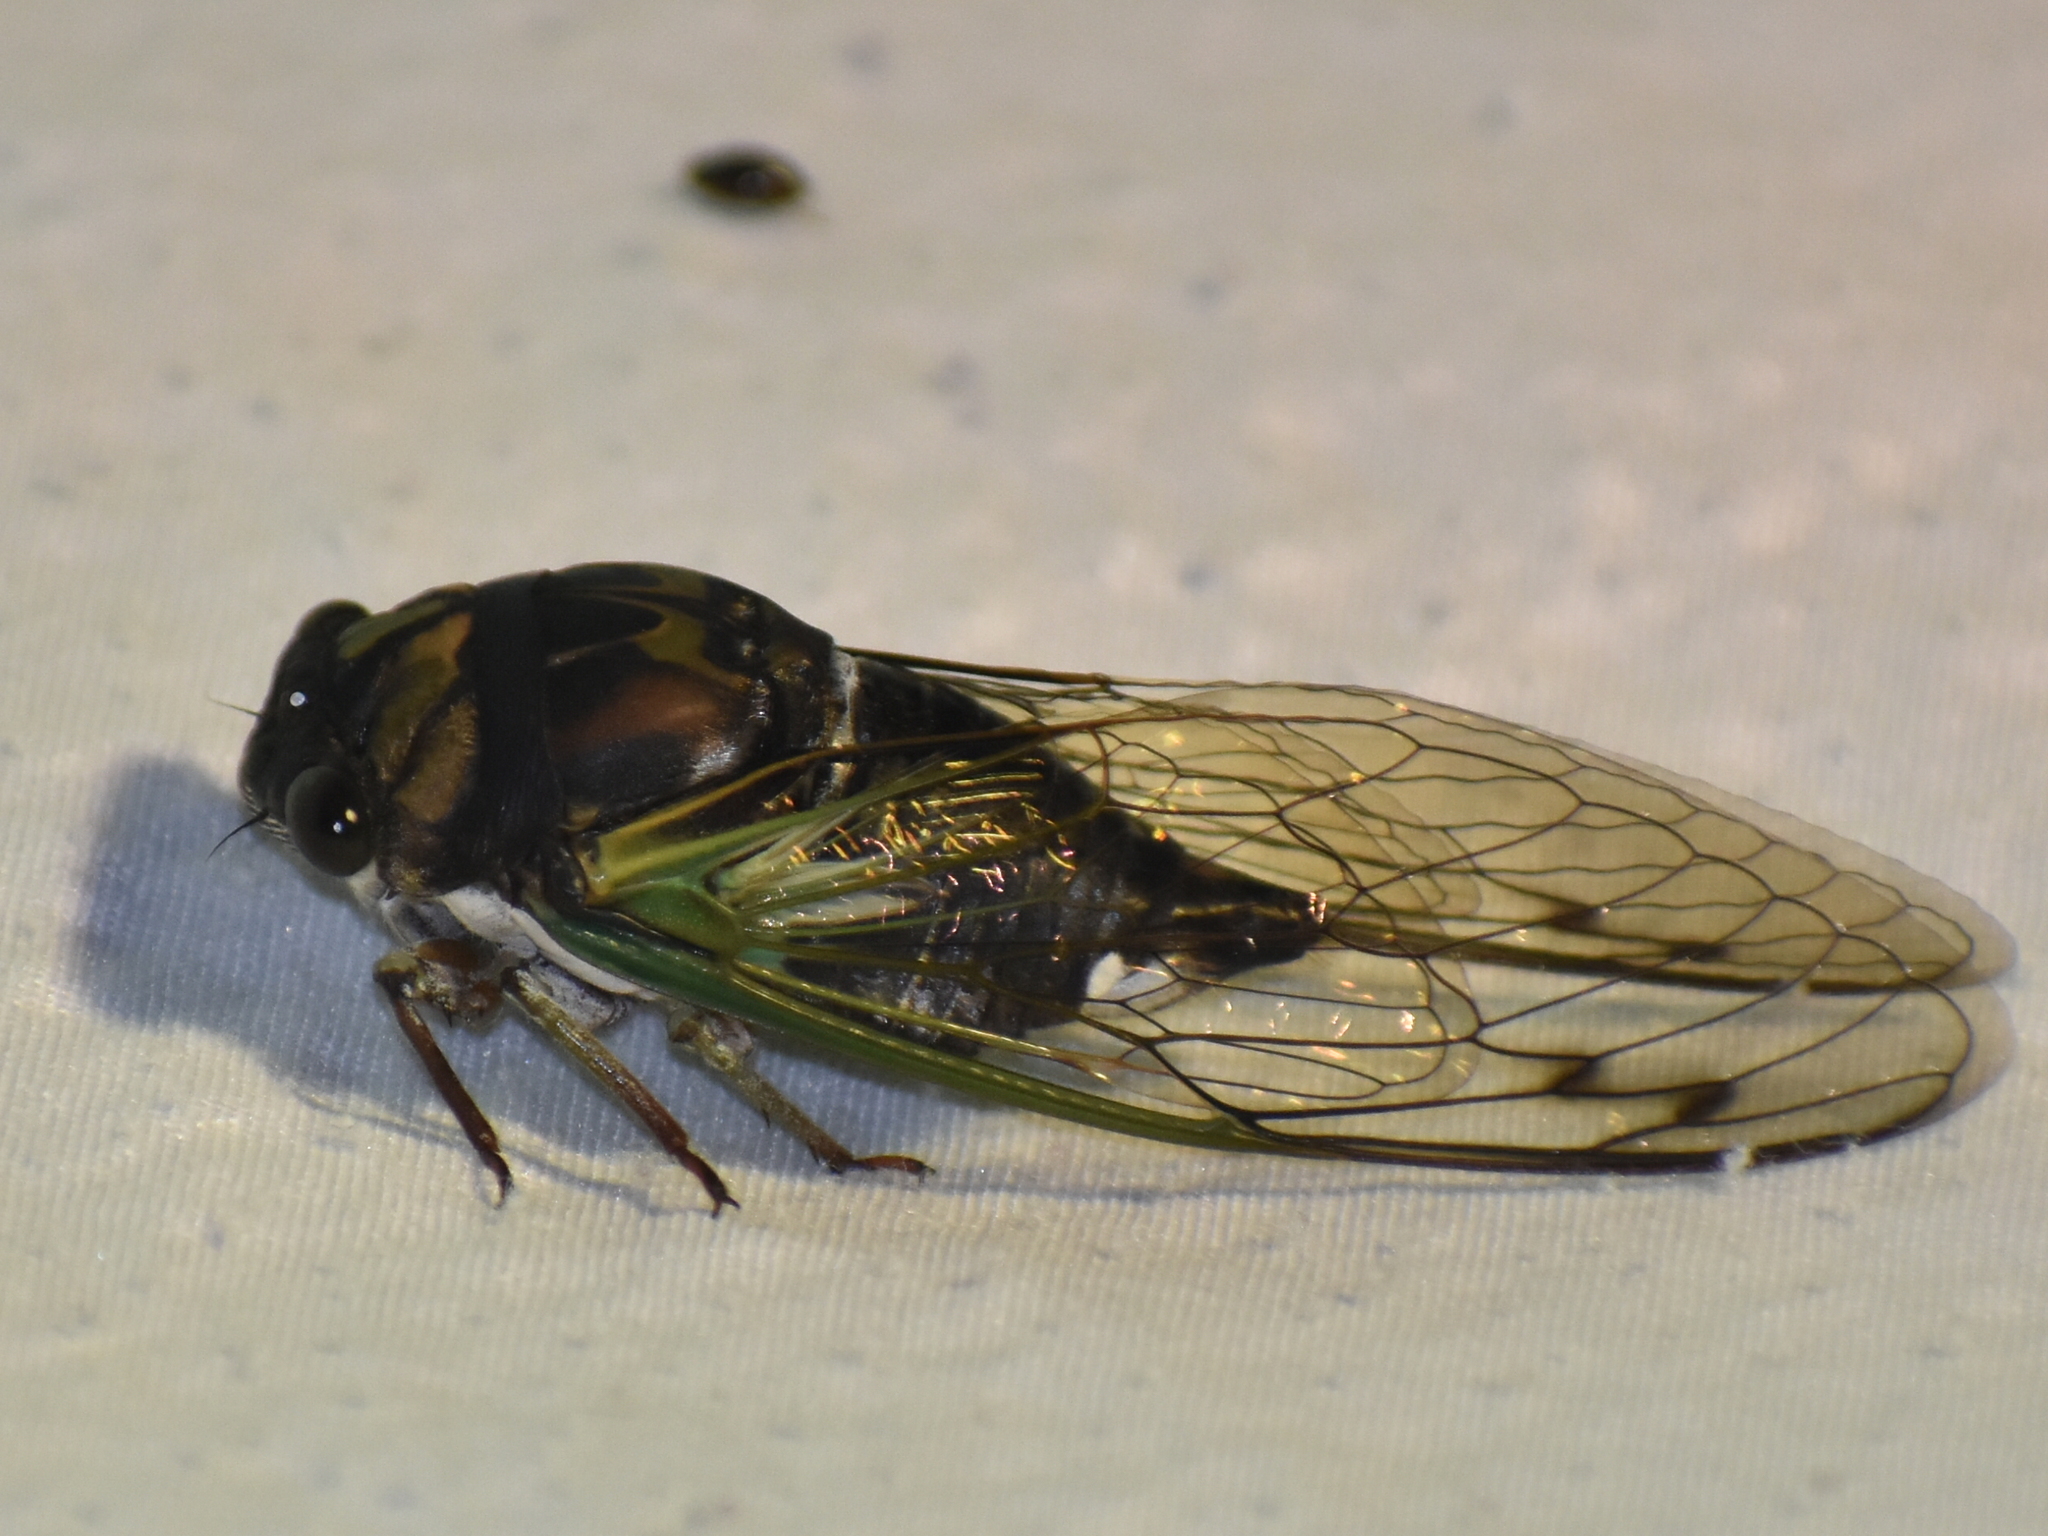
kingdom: Animalia
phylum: Arthropoda
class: Insecta
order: Hemiptera
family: Cicadidae
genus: Neotibicen
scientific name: Neotibicen lyricen
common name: Lyric cicada
